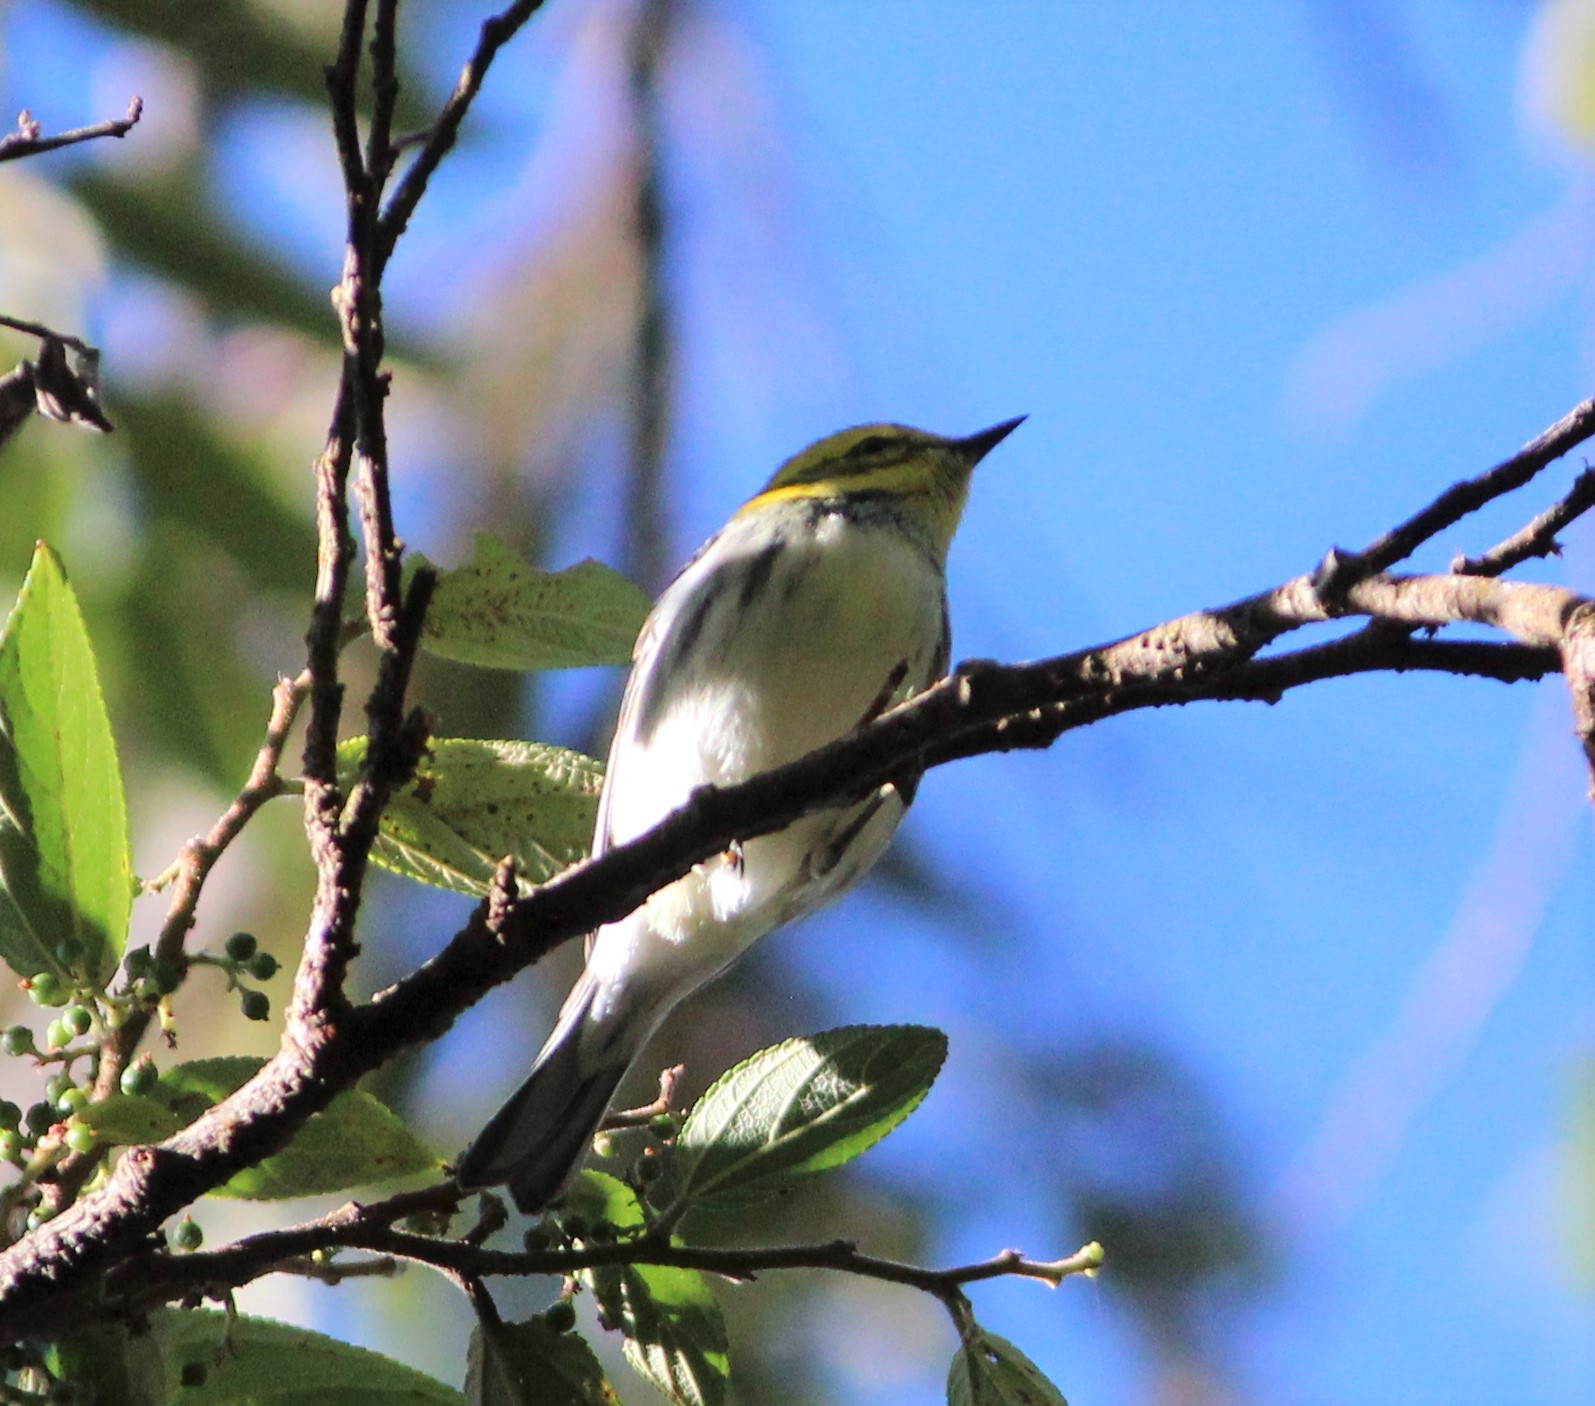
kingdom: Animalia
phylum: Chordata
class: Aves
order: Passeriformes
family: Parulidae
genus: Setophaga
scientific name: Setophaga virens
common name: Black-throated green warbler
